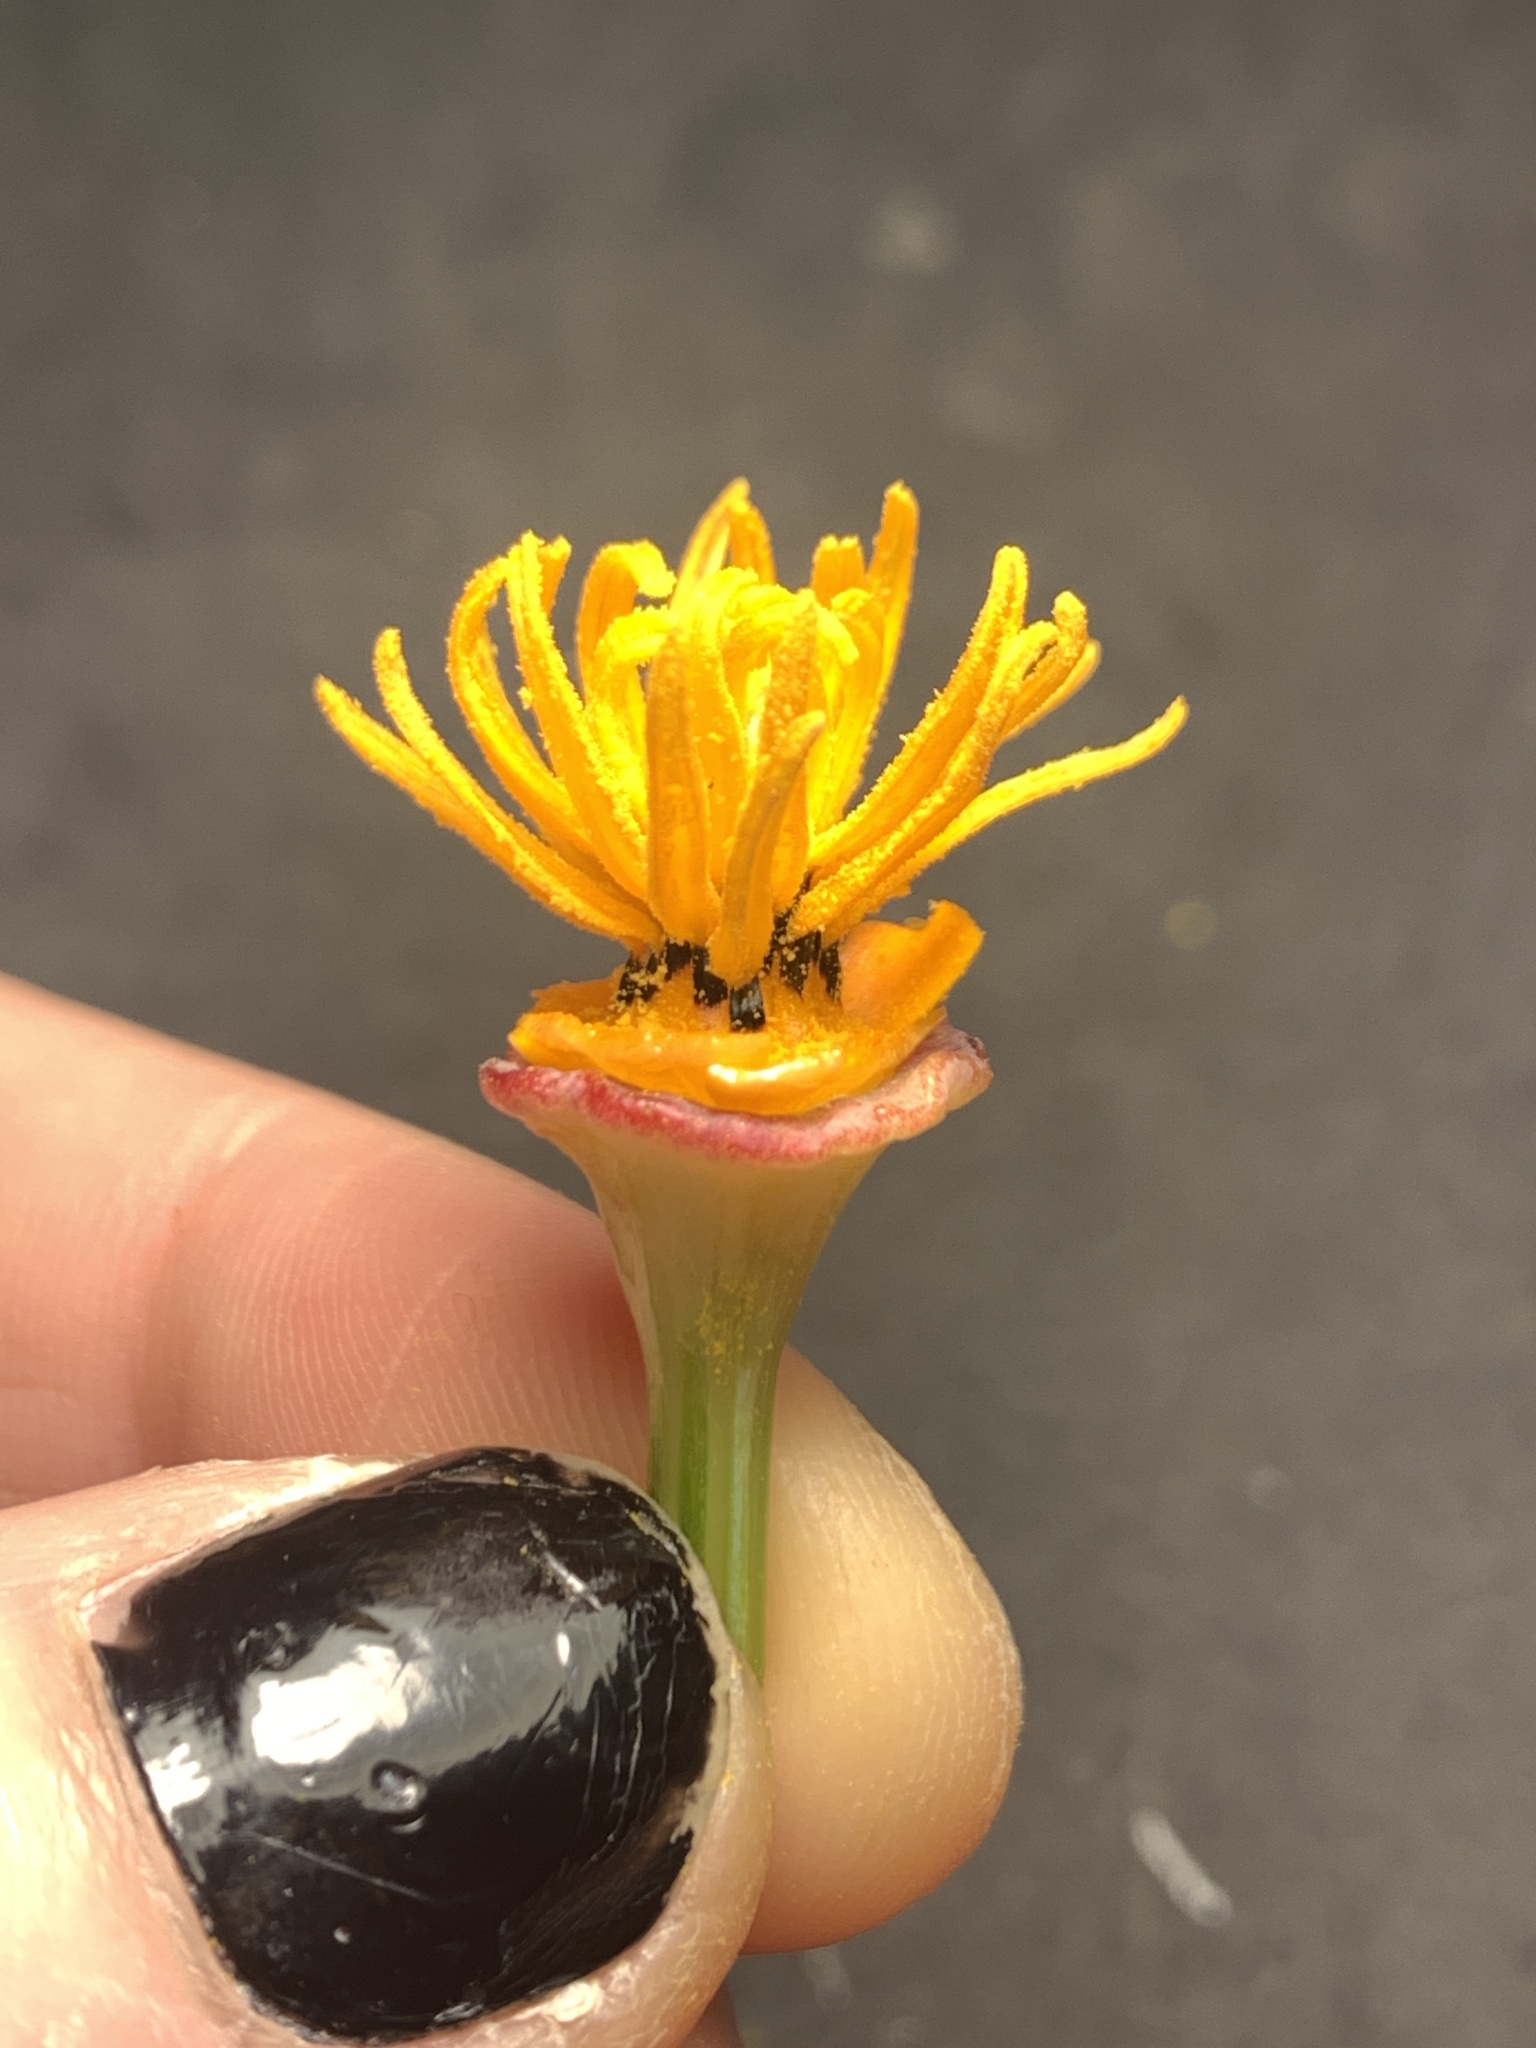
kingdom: Plantae
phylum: Tracheophyta
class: Magnoliopsida
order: Ranunculales
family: Papaveraceae
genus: Eschscholzia
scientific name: Eschscholzia californica
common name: California poppy
